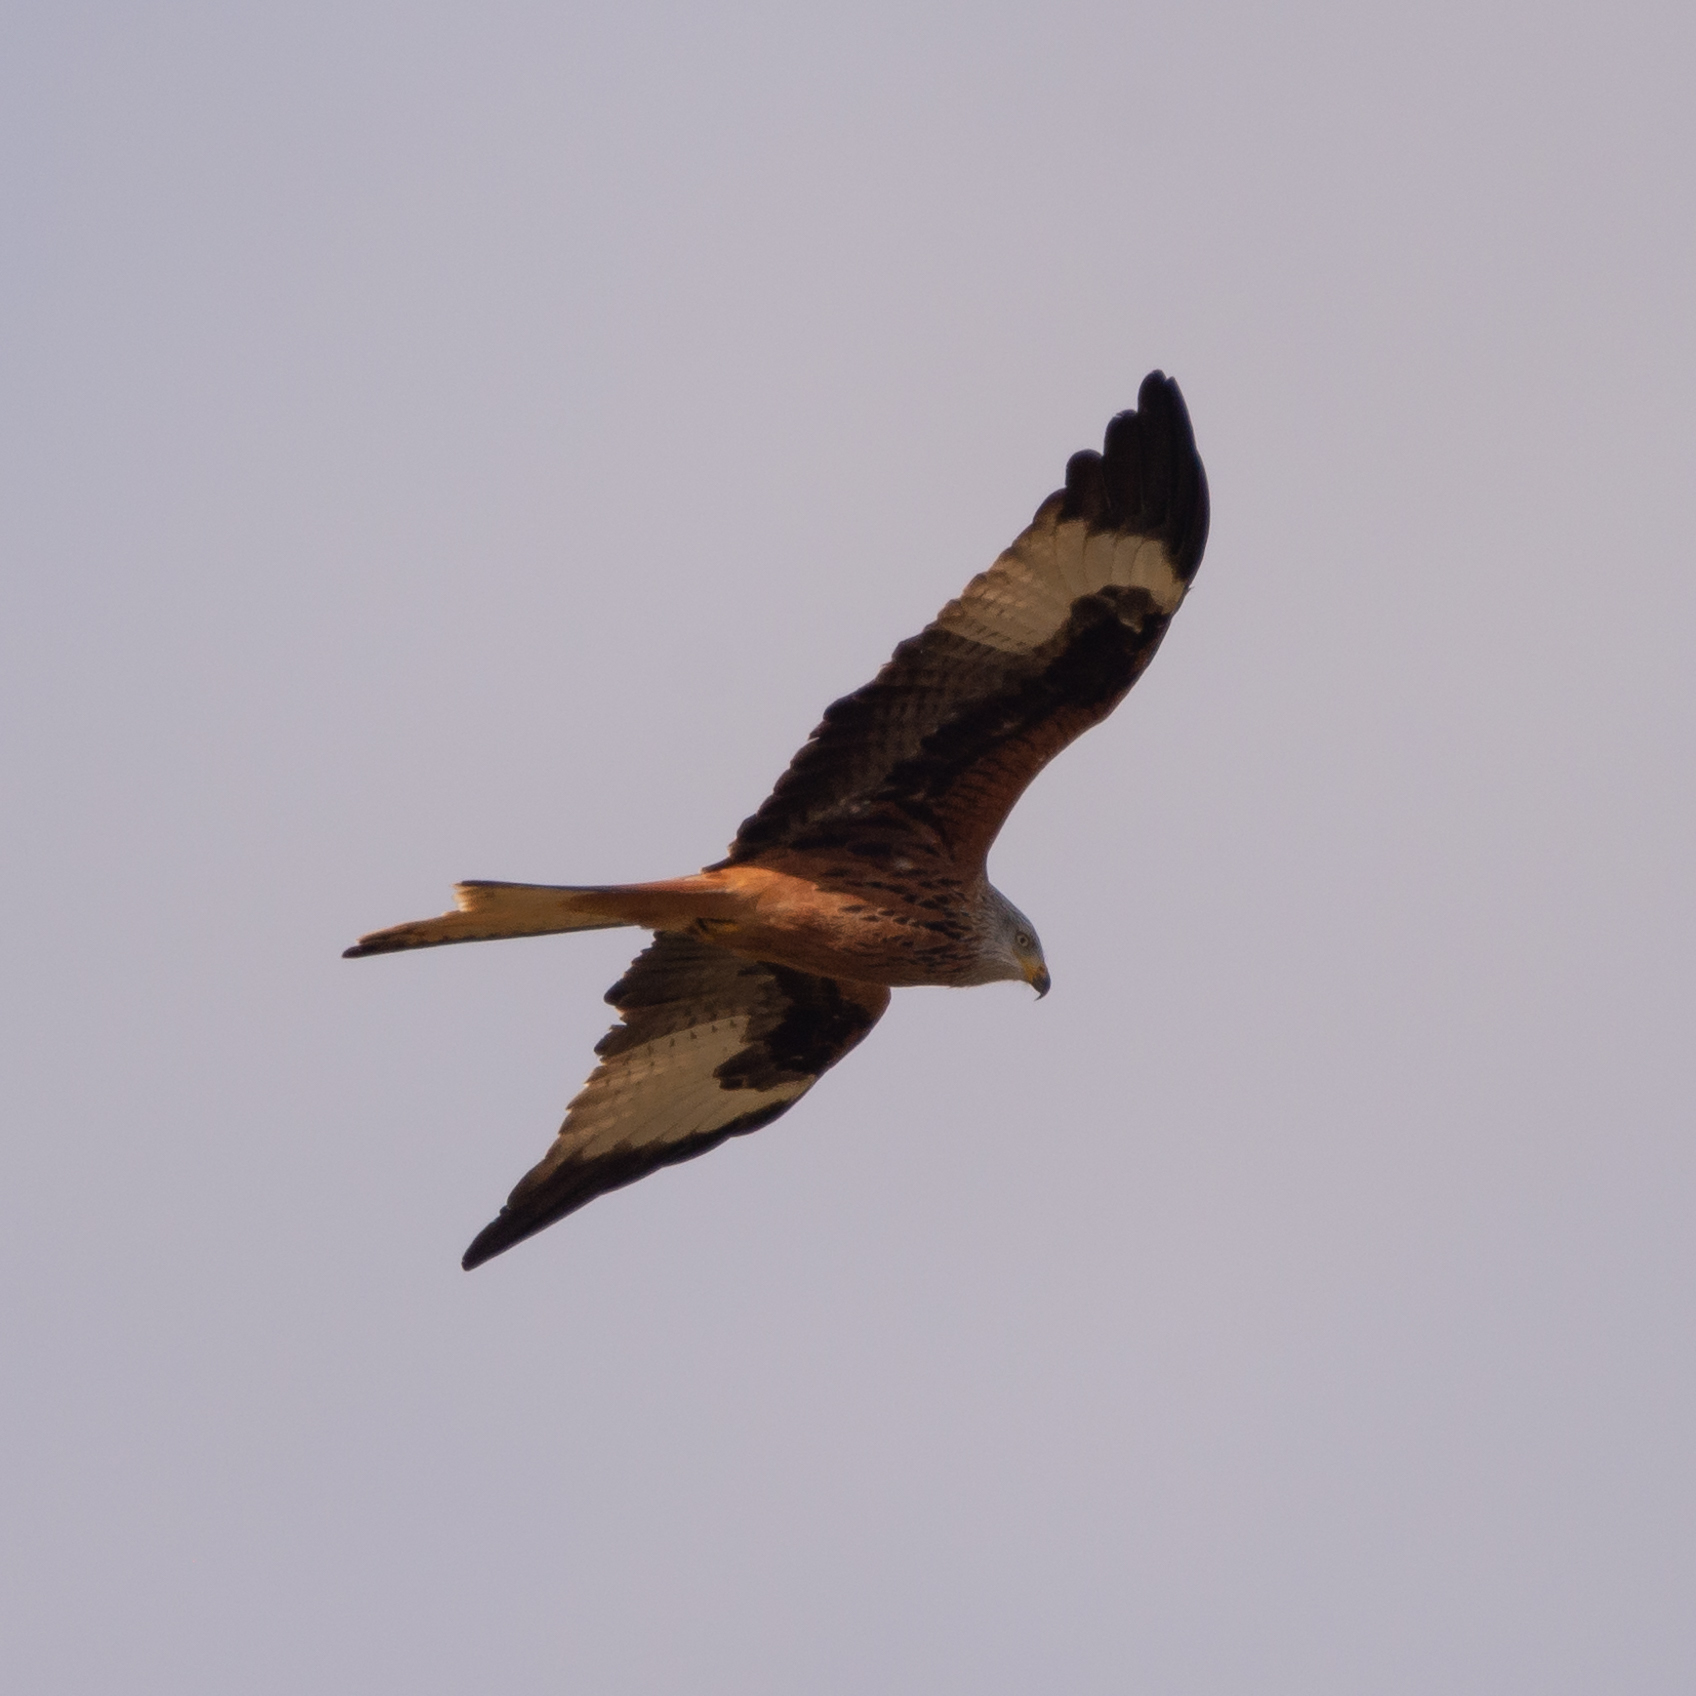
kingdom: Animalia
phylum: Chordata
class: Aves
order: Accipitriformes
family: Accipitridae
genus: Milvus
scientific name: Milvus milvus
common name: Red kite
